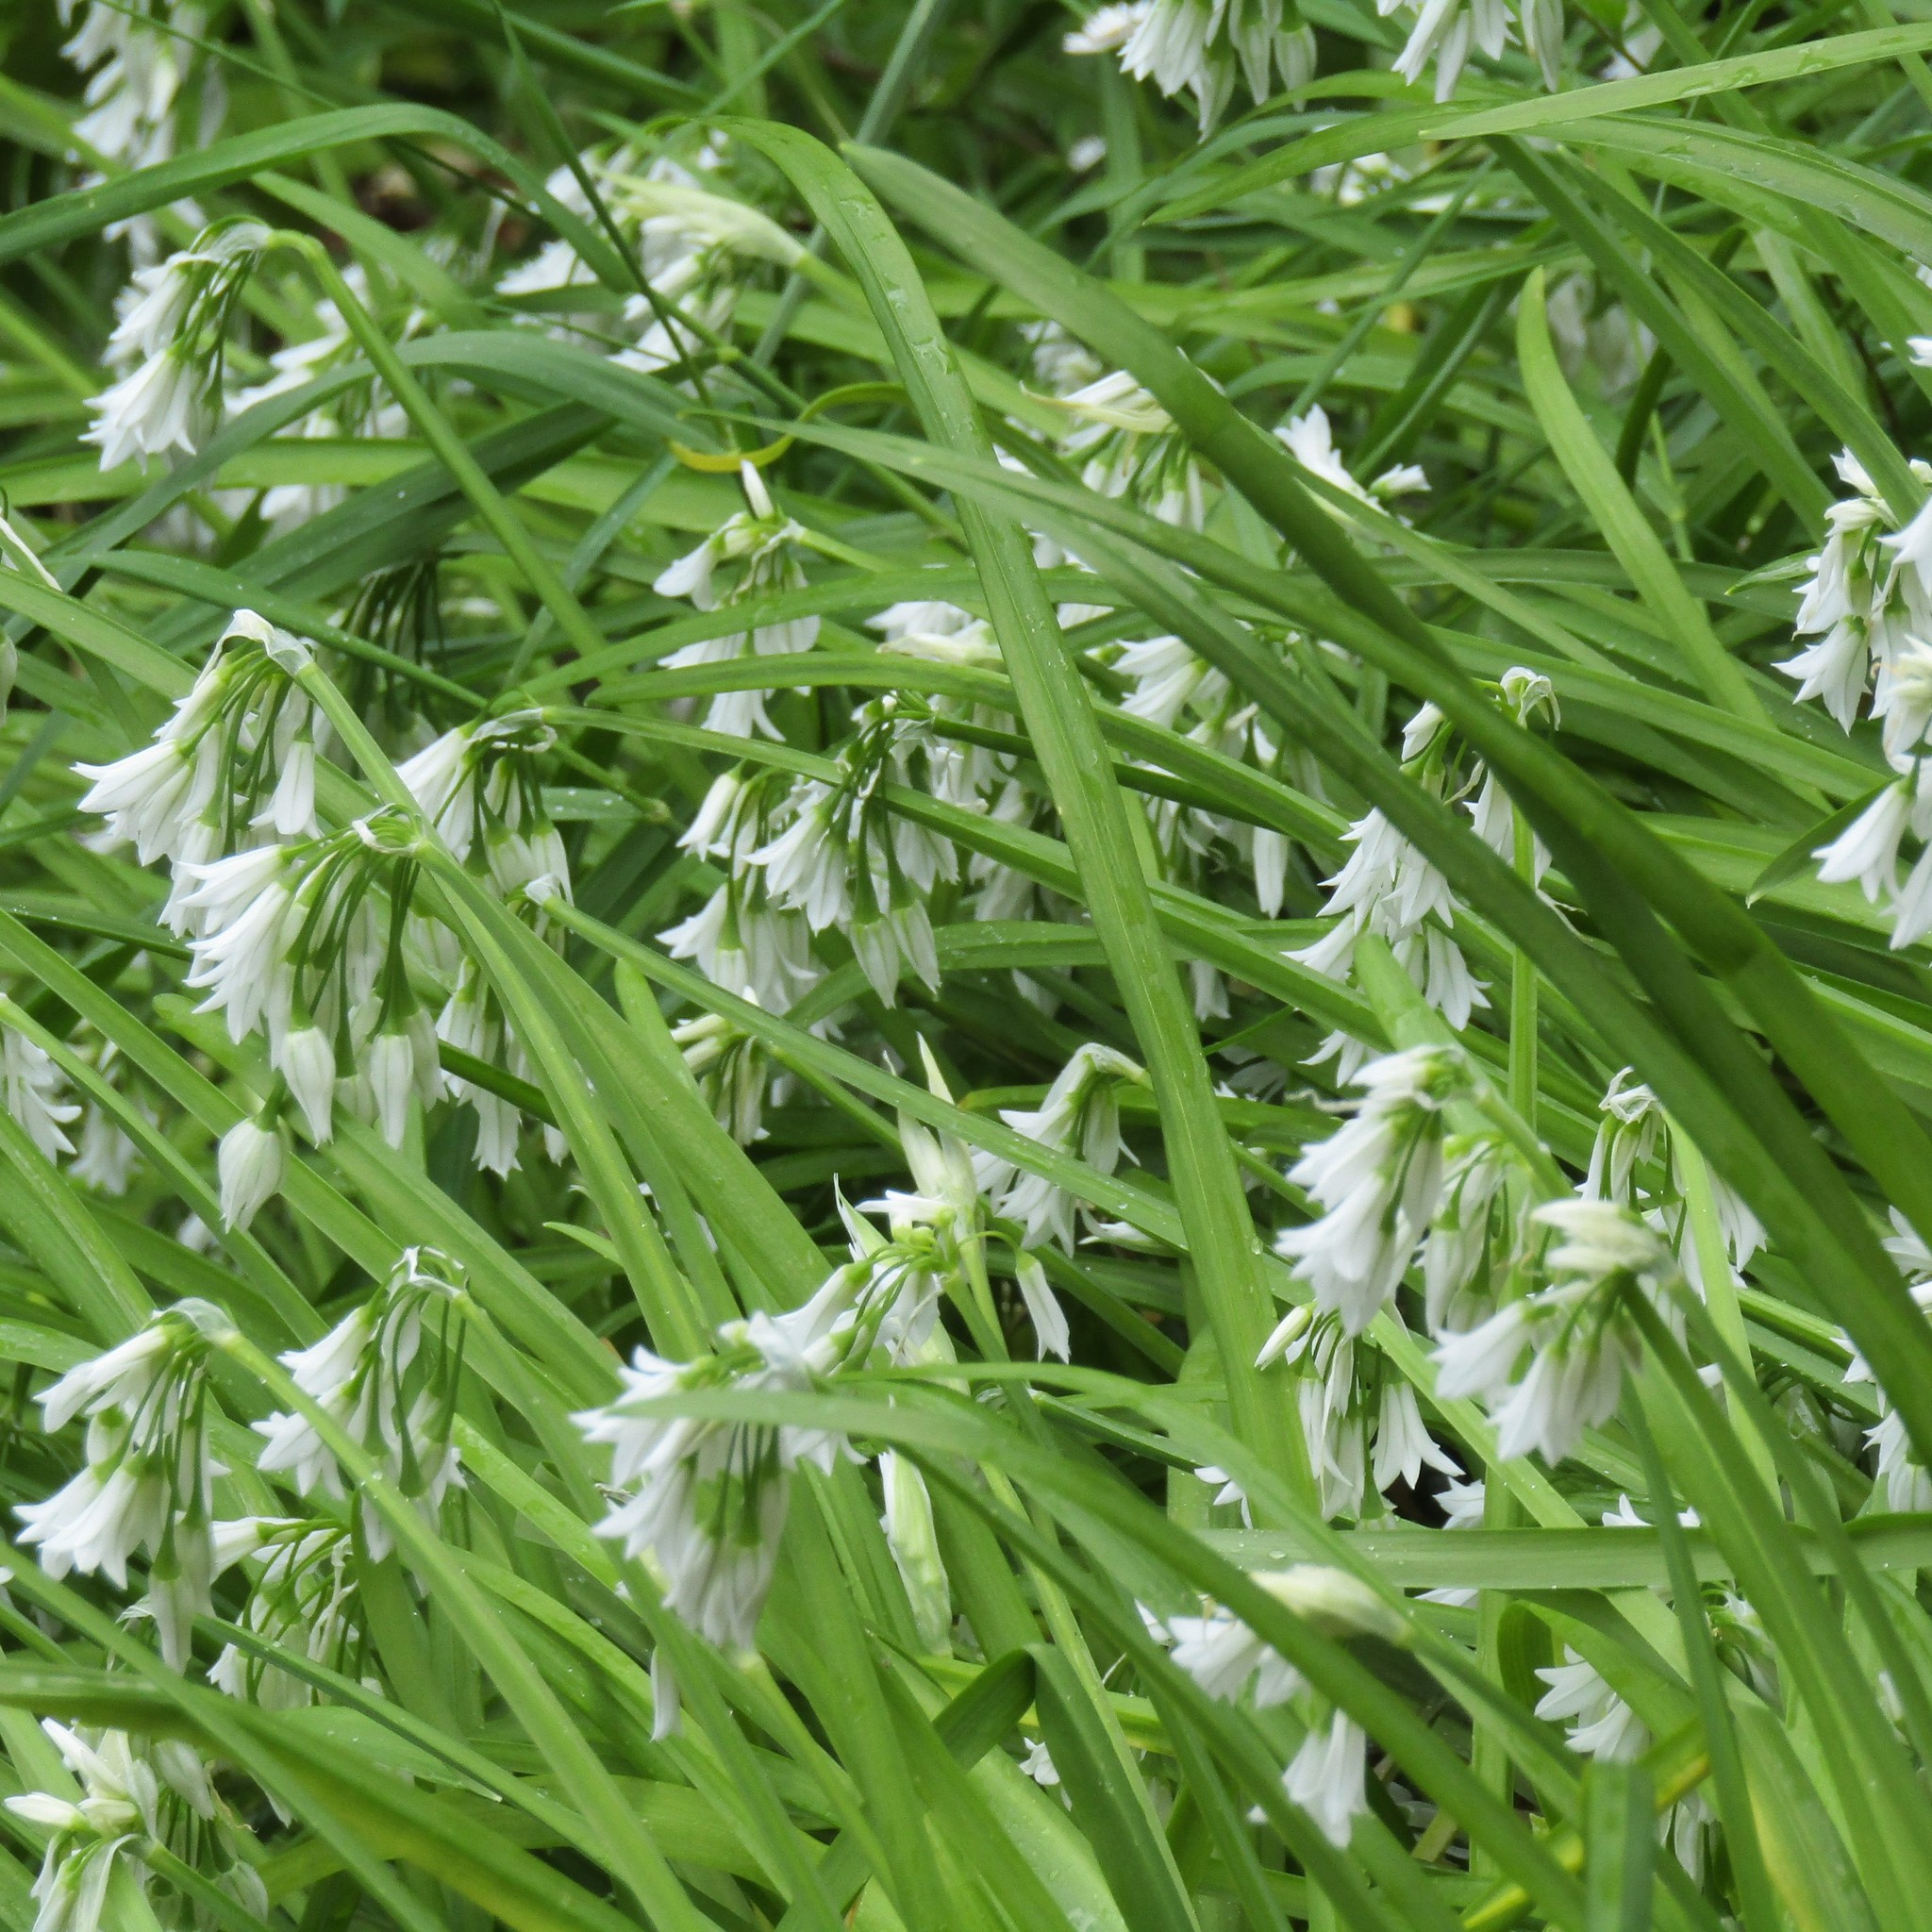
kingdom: Plantae
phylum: Tracheophyta
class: Liliopsida
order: Asparagales
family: Amaryllidaceae
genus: Allium
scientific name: Allium triquetrum
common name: Three-cornered garlic
